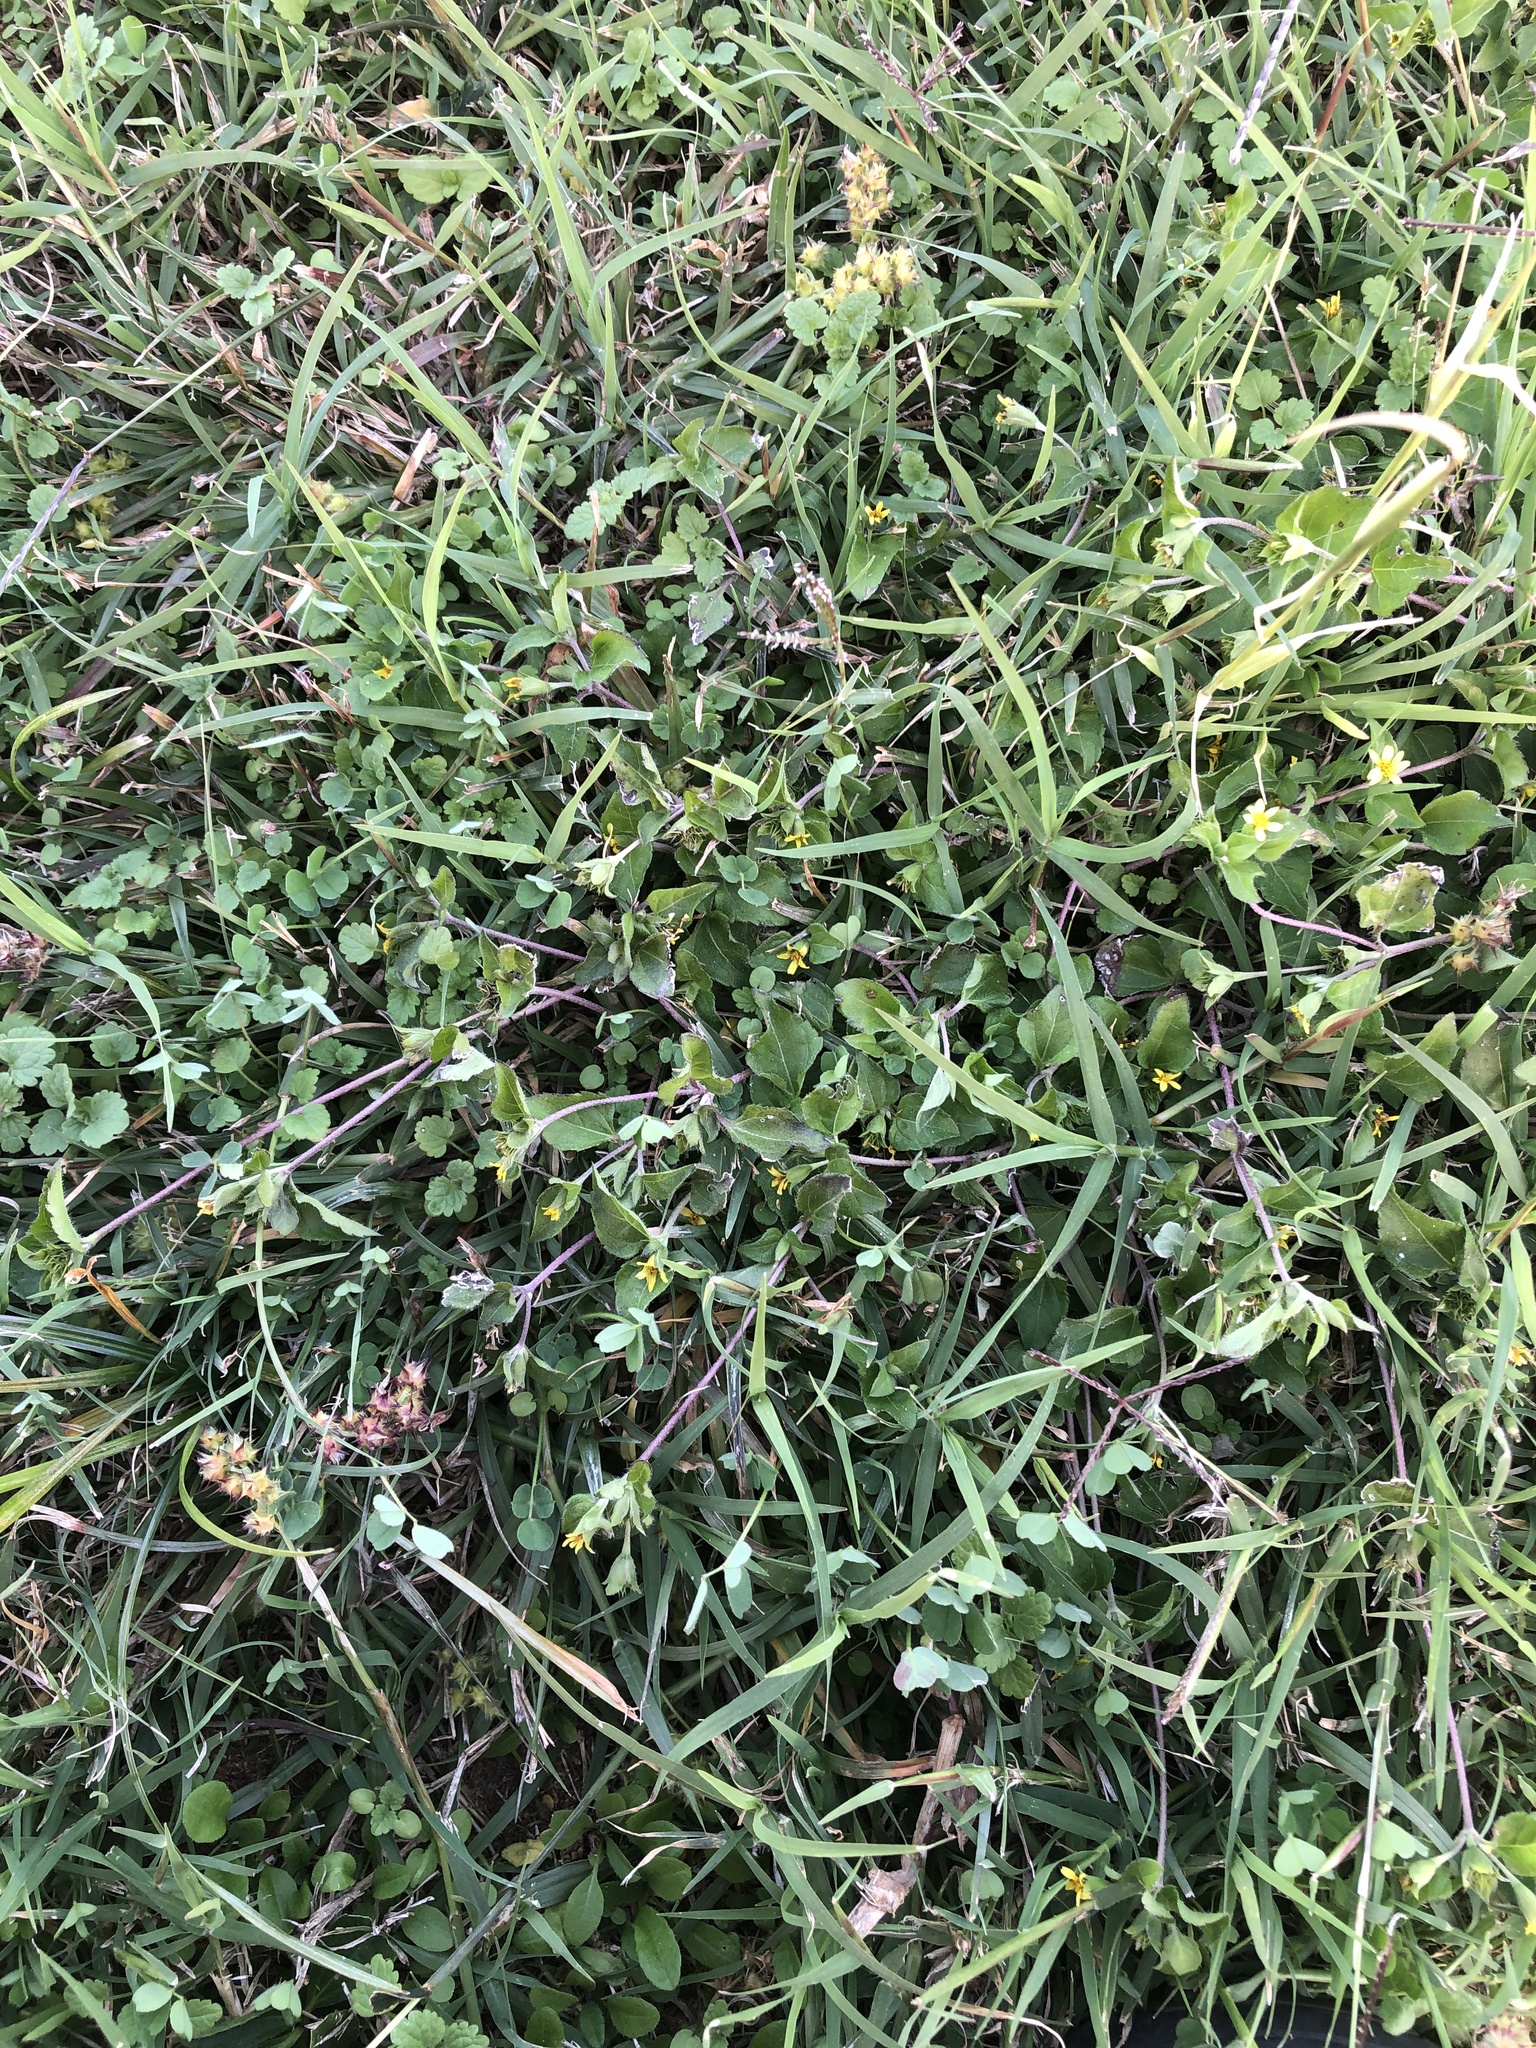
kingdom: Plantae
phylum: Tracheophyta
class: Magnoliopsida
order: Asterales
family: Asteraceae
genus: Calyptocarpus
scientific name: Calyptocarpus vialis
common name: Straggler daisy
